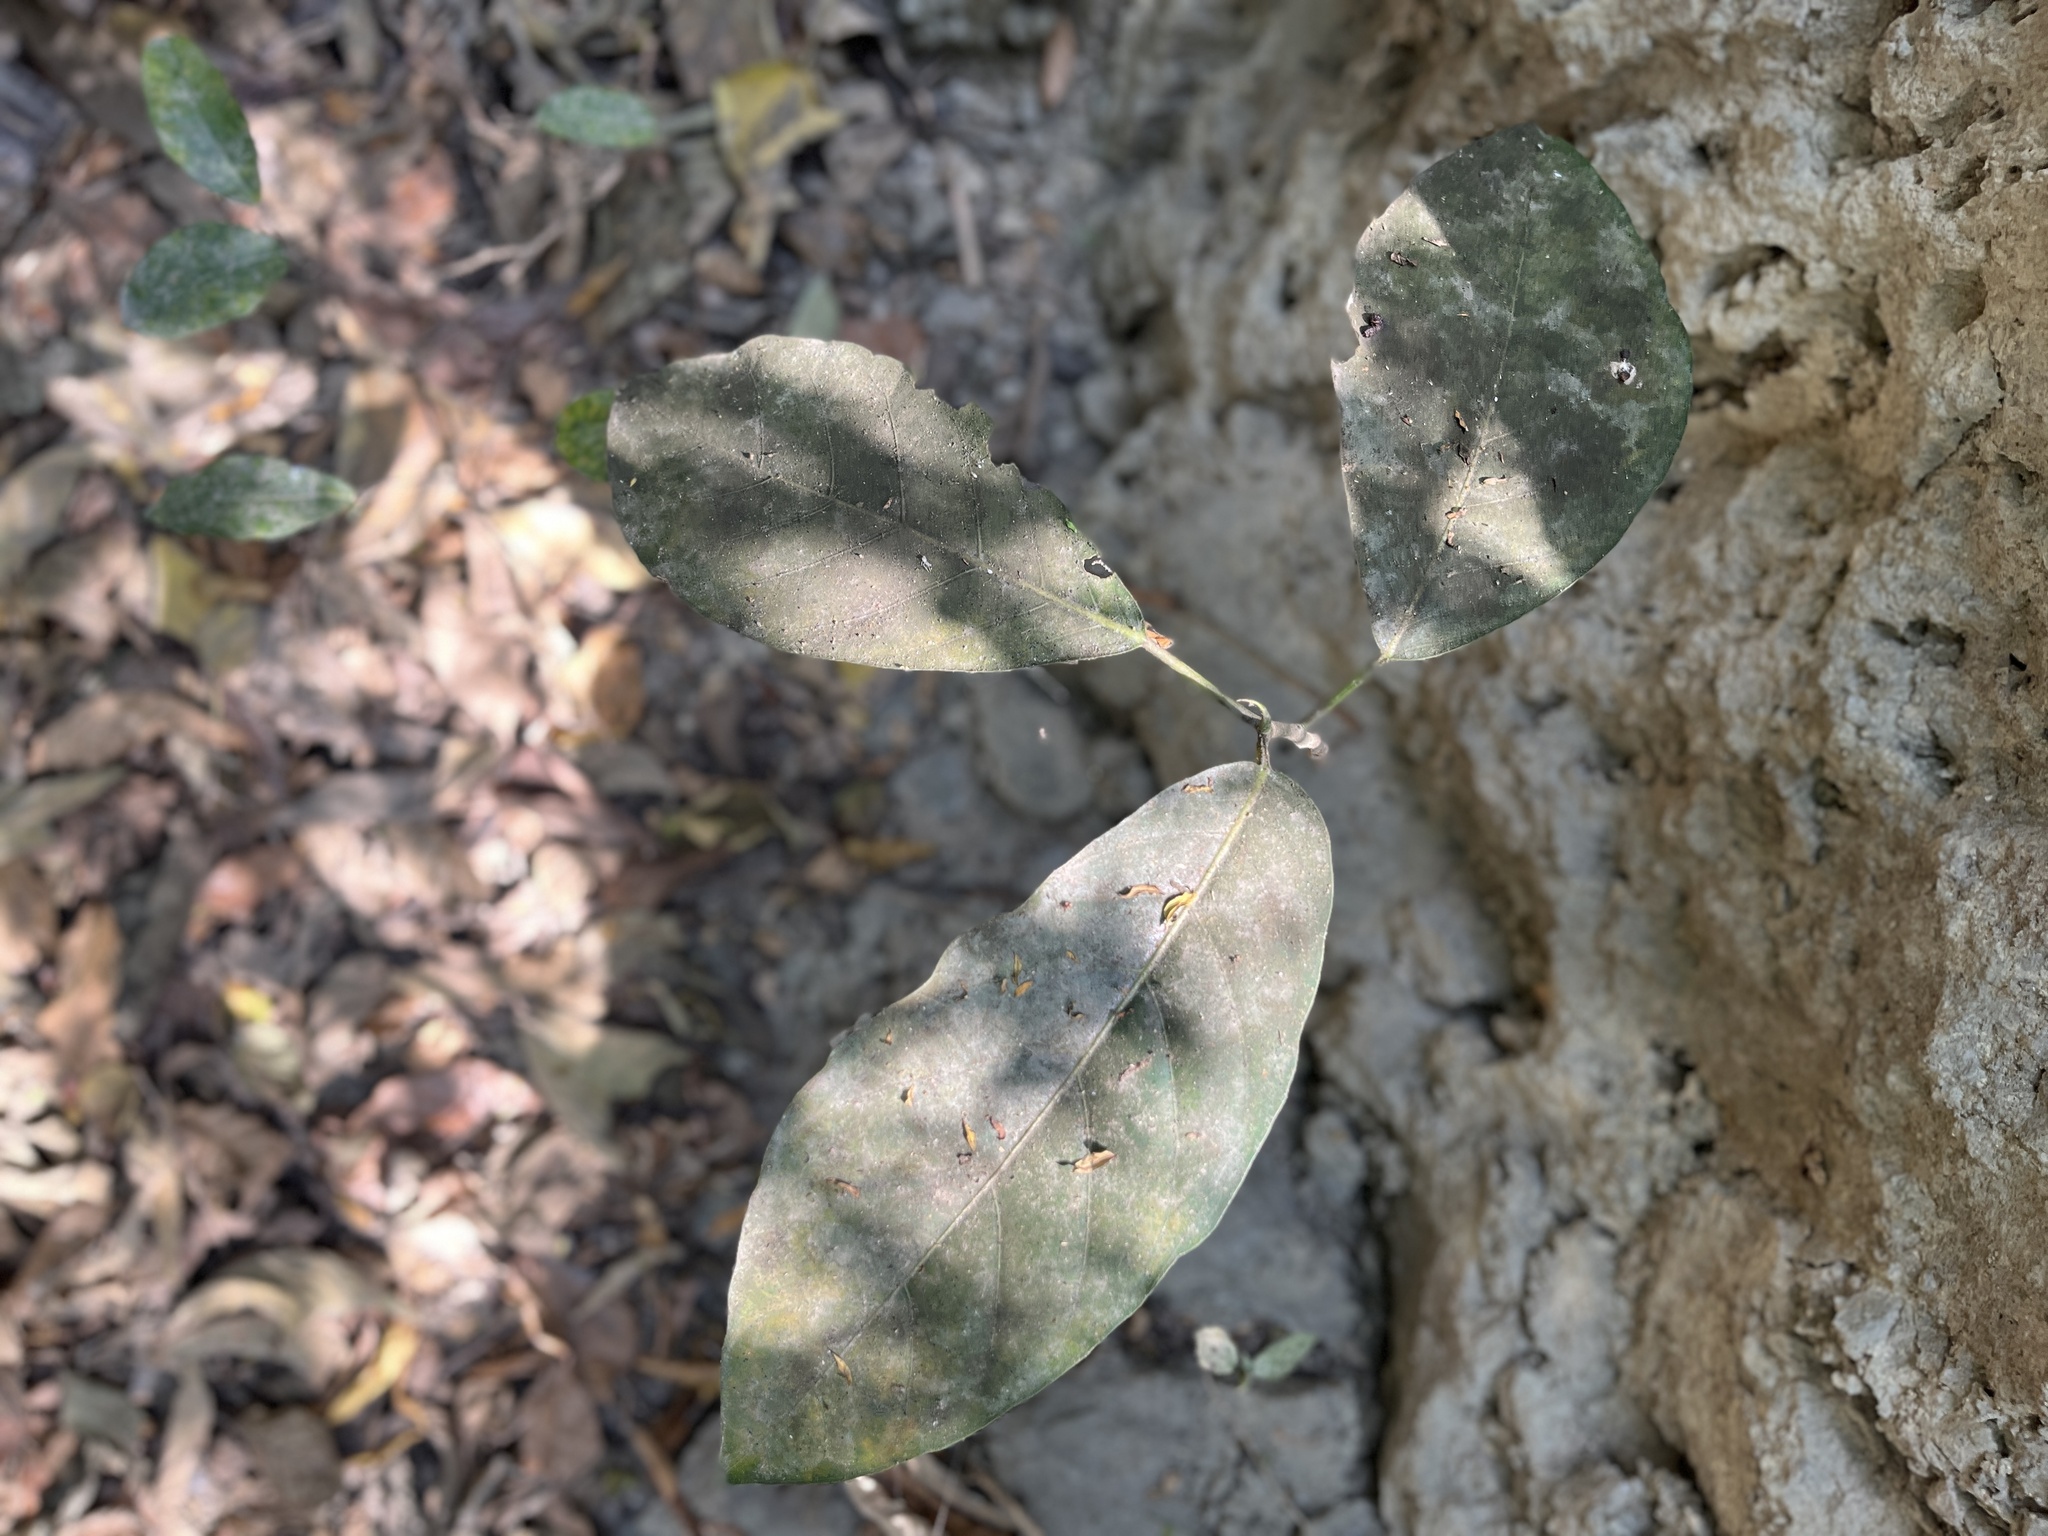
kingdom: Plantae
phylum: Tracheophyta
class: Magnoliopsida
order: Rosales
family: Moraceae
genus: Ficus
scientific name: Ficus tinctoria
